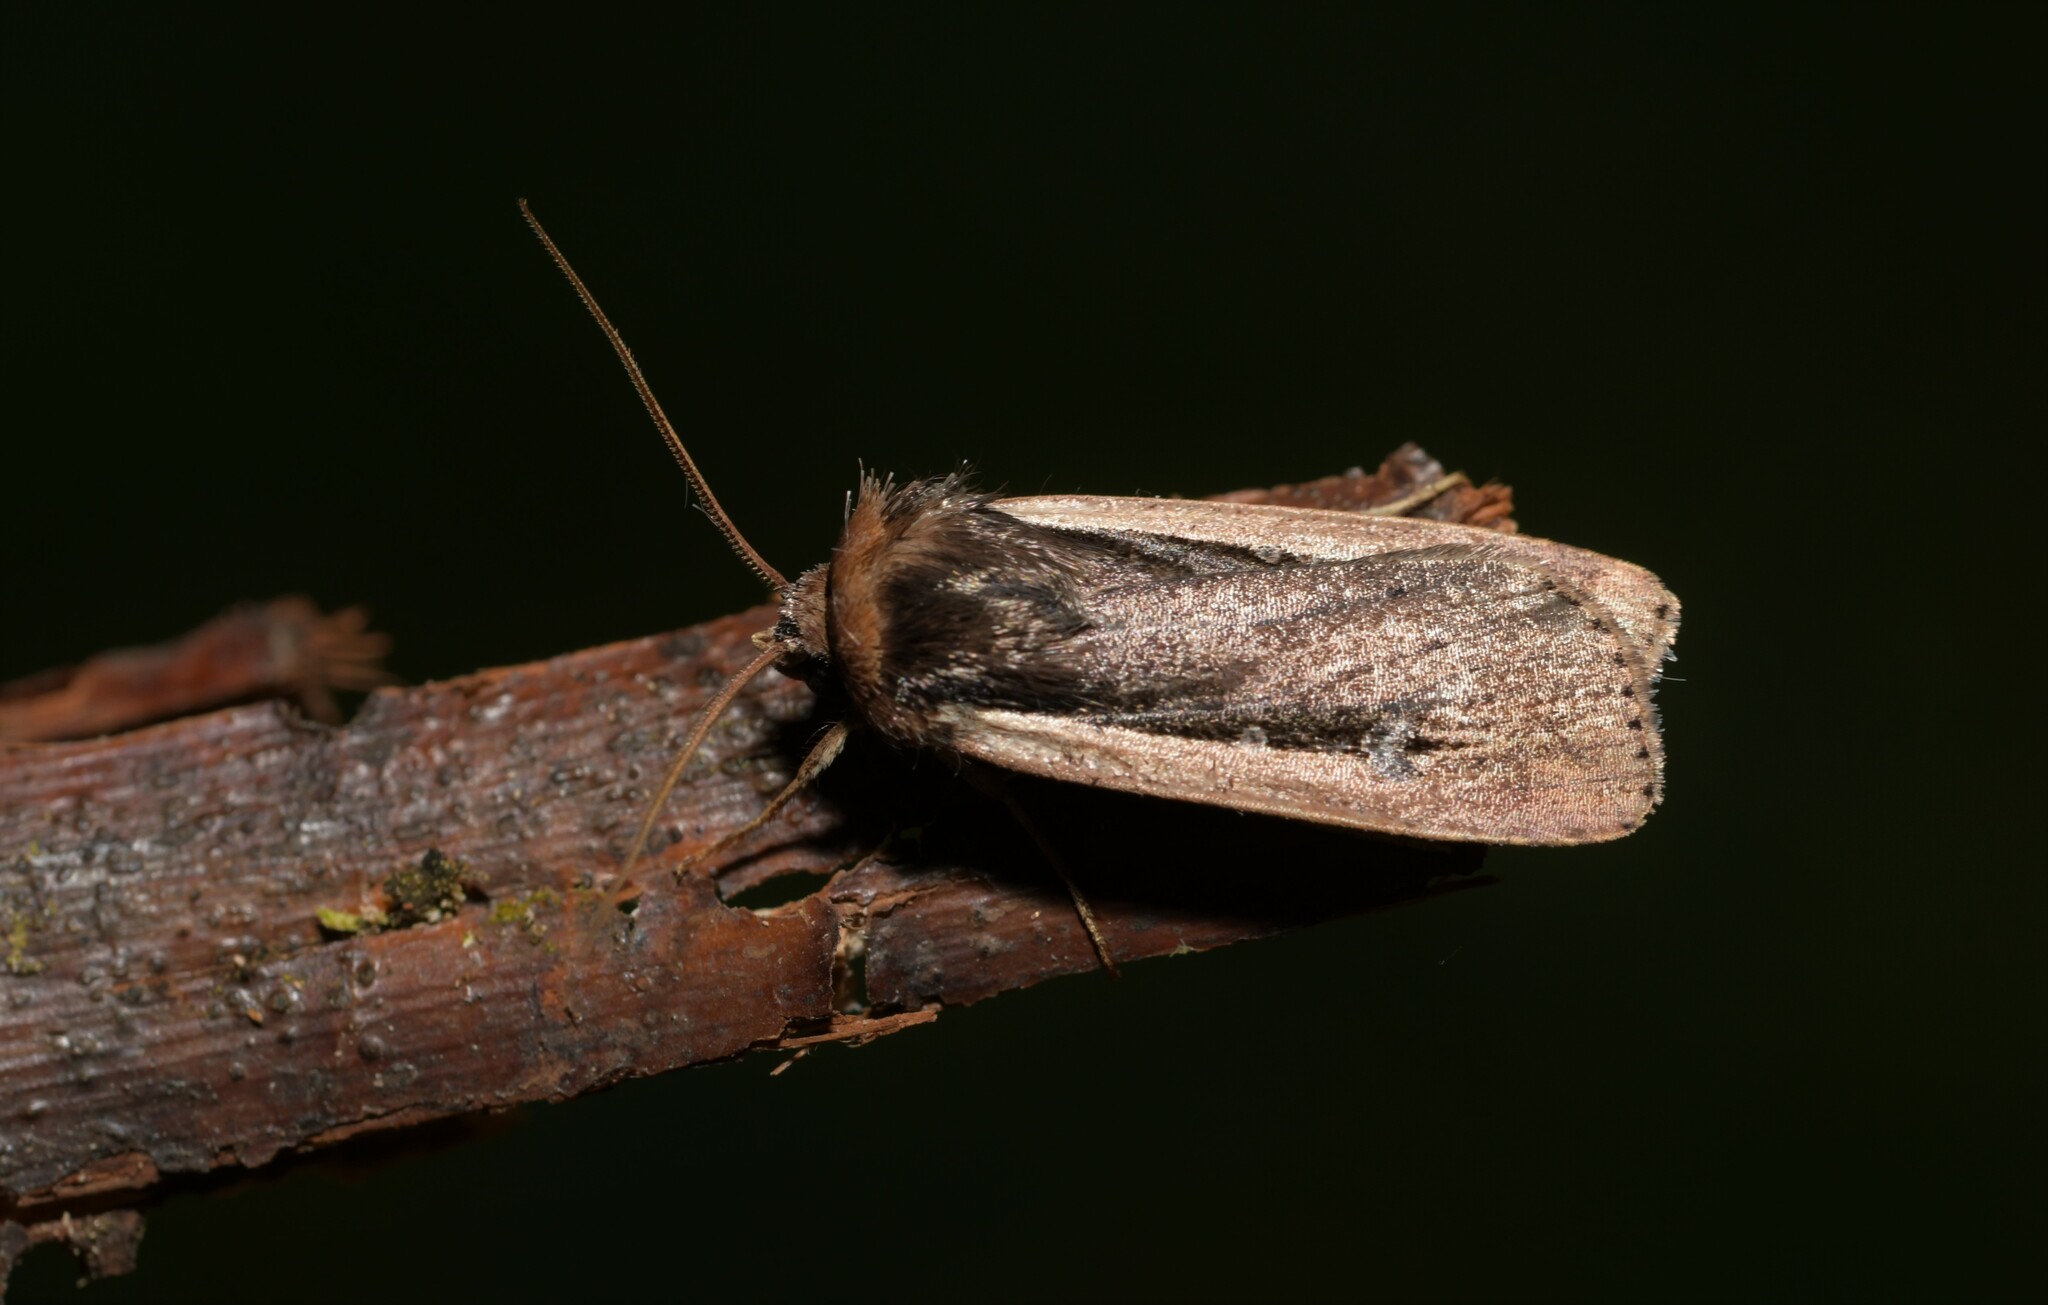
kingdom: Animalia
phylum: Arthropoda
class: Insecta
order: Lepidoptera
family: Noctuidae
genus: Ochropleura
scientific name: Ochropleura leucogaster
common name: Radford's flame shoulder
